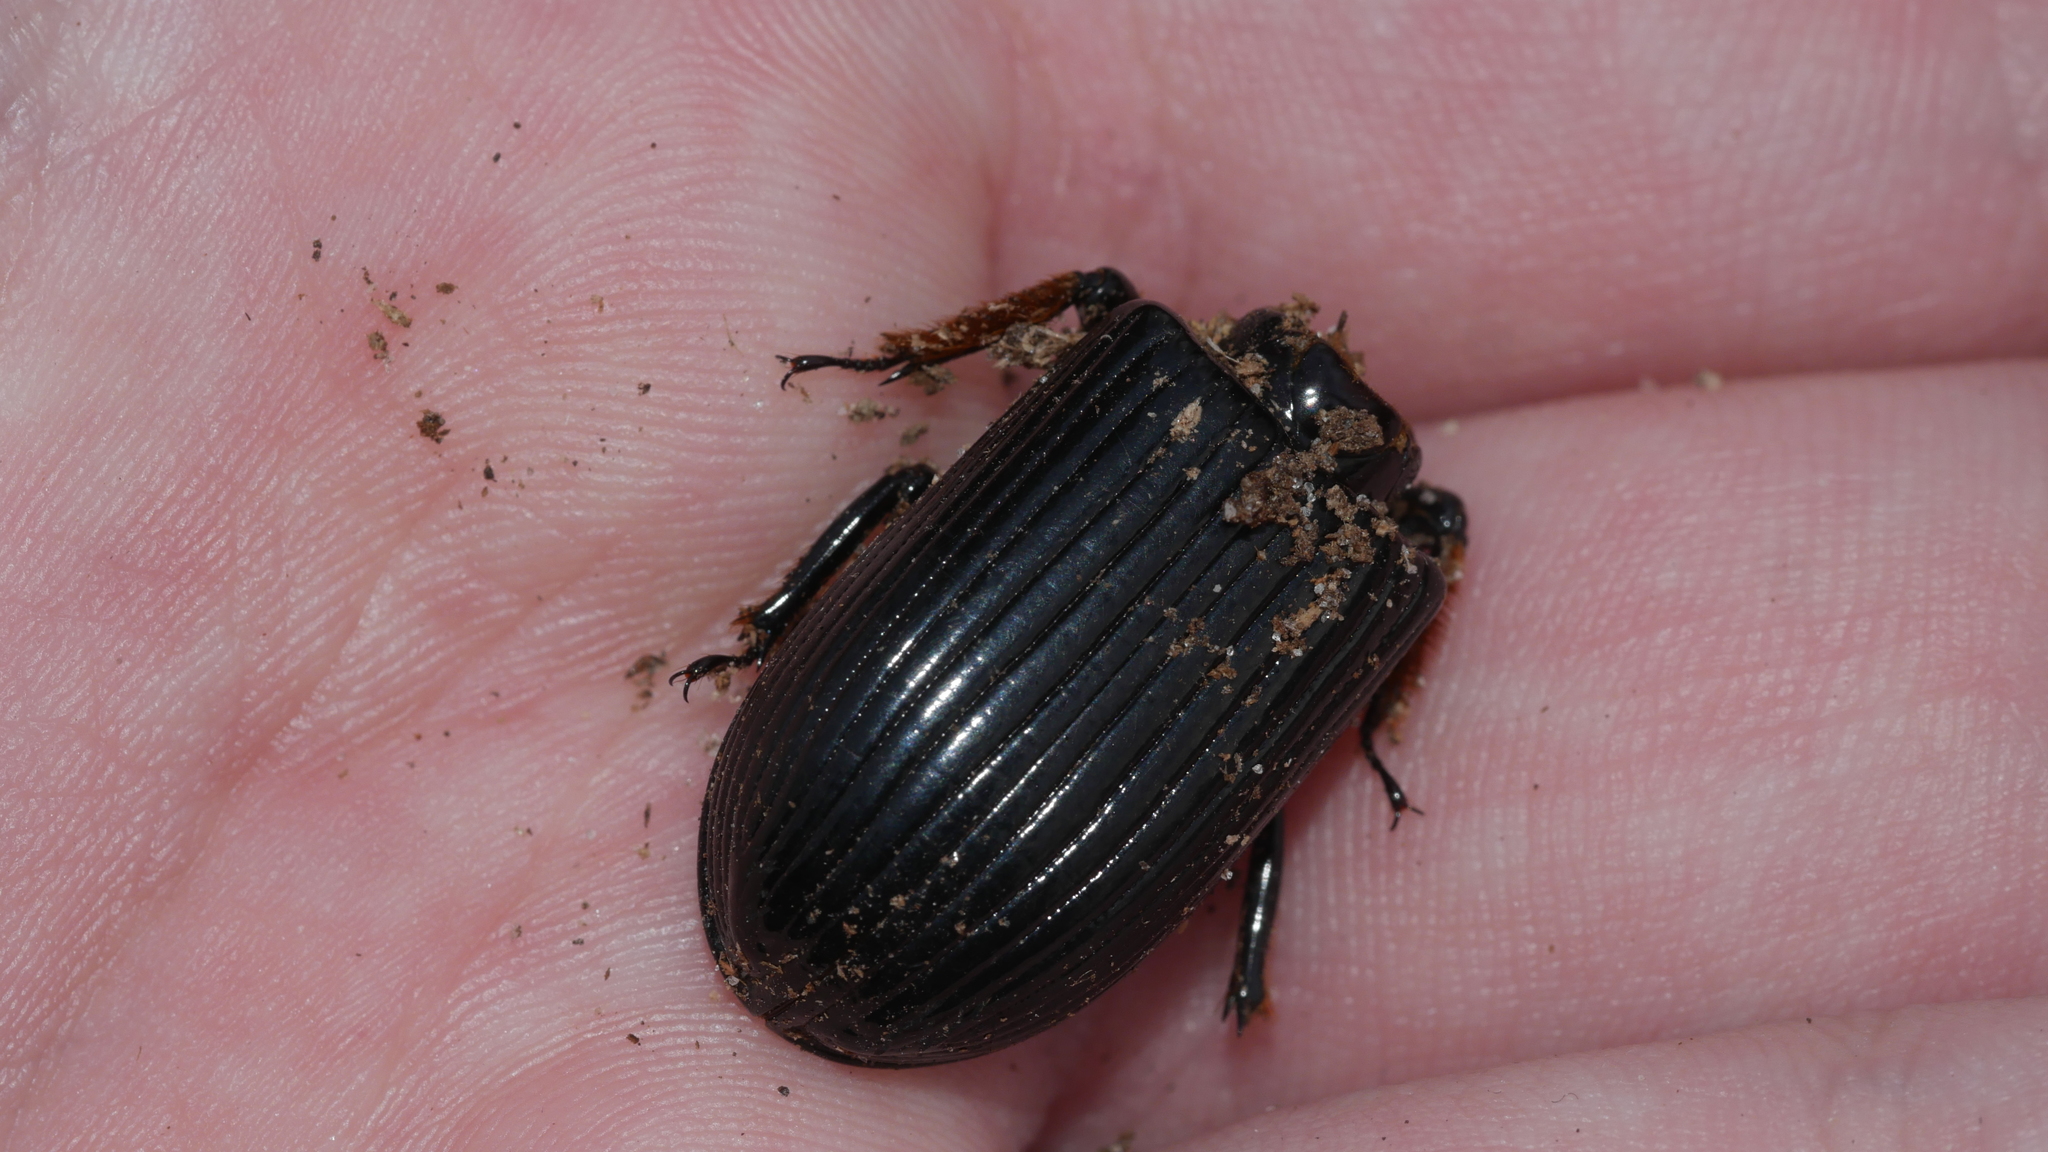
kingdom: Animalia
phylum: Arthropoda
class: Insecta
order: Coleoptera
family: Passalidae
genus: Odontotaenius
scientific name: Odontotaenius disjunctus
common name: Patent leather beetle
